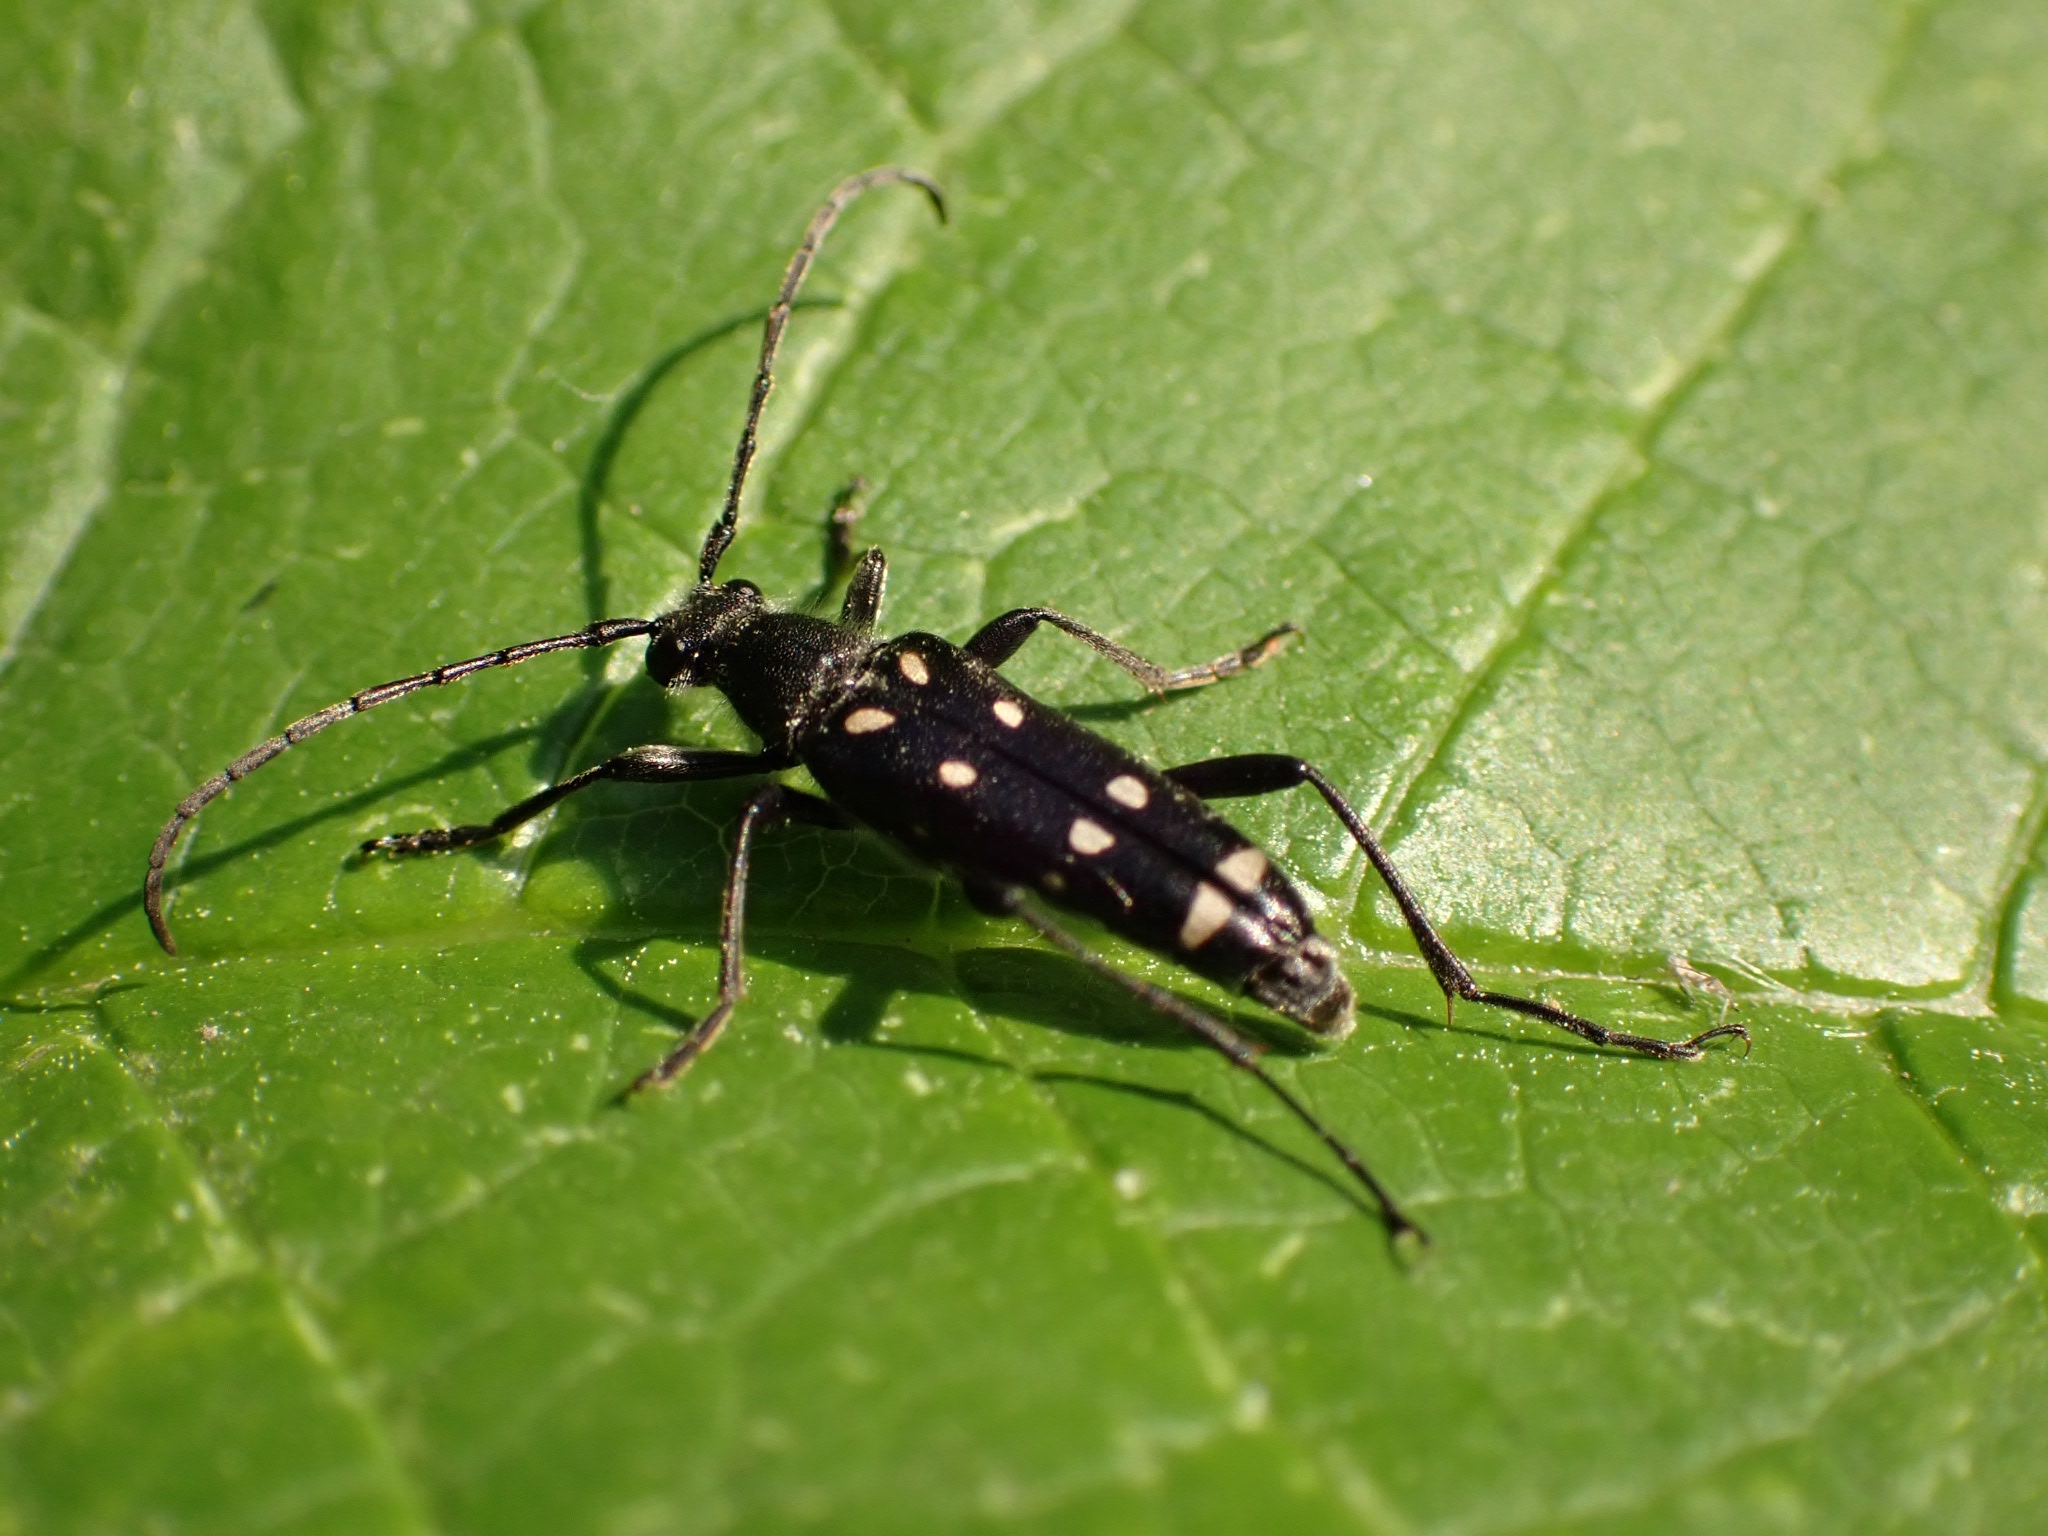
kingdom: Animalia
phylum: Arthropoda
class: Insecta
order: Coleoptera
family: Cerambycidae
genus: Leptura
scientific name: Leptura duodecimguttata
